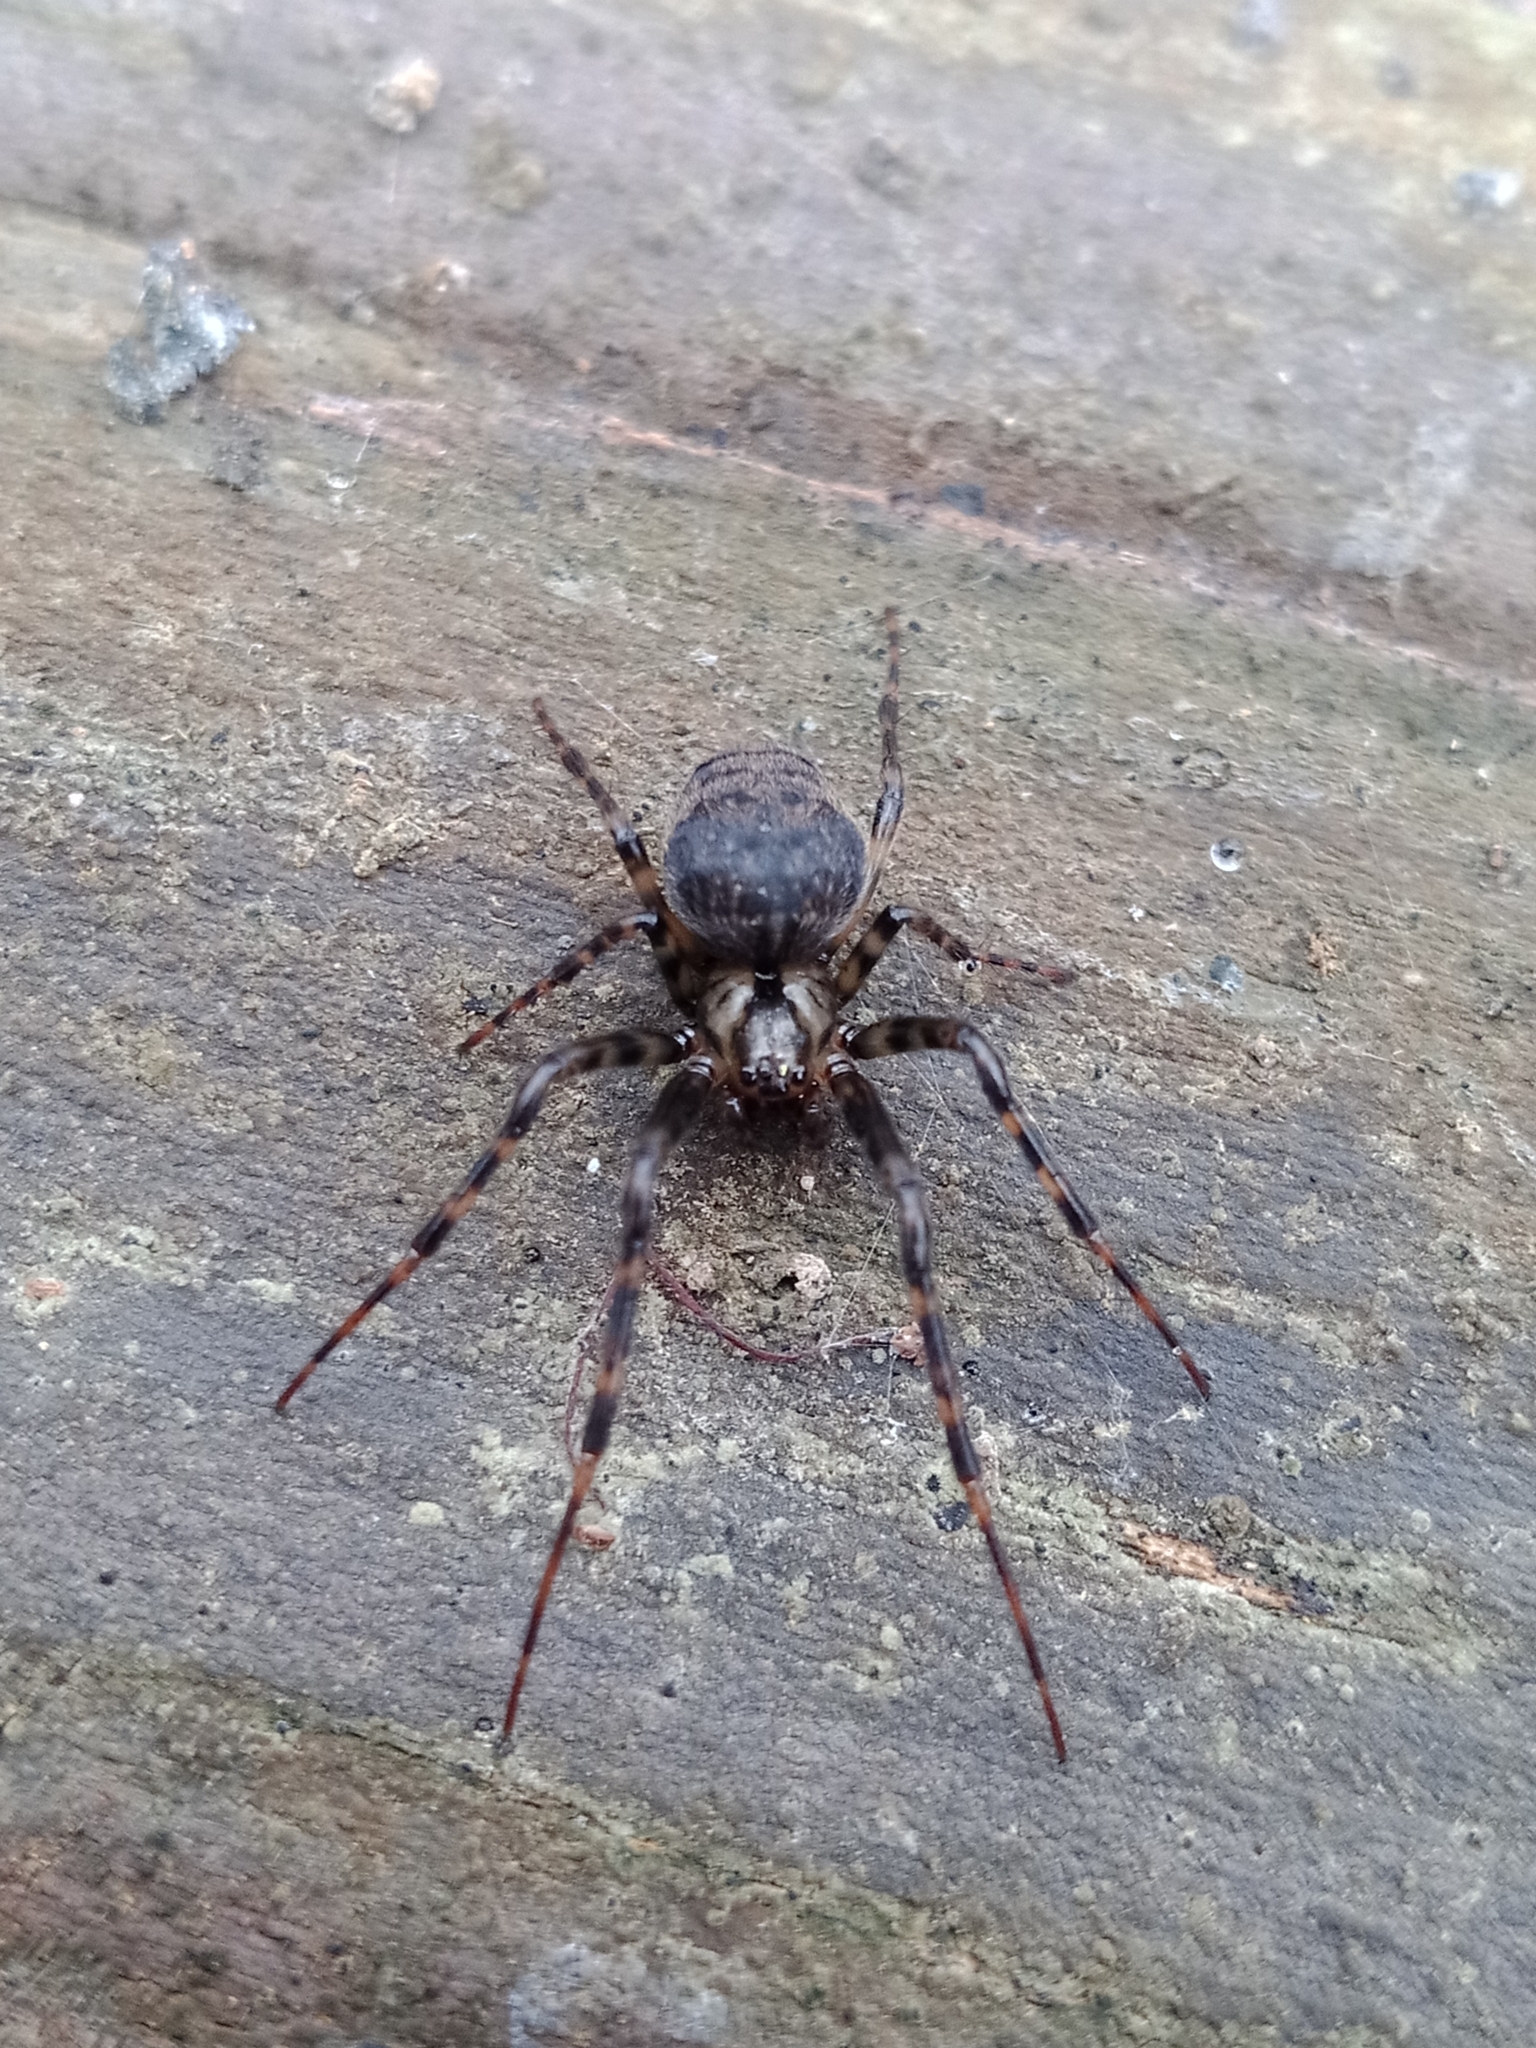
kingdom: Animalia
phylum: Arthropoda
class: Arachnida
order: Araneae
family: Tetragnathidae
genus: Metellina
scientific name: Metellina merianae
